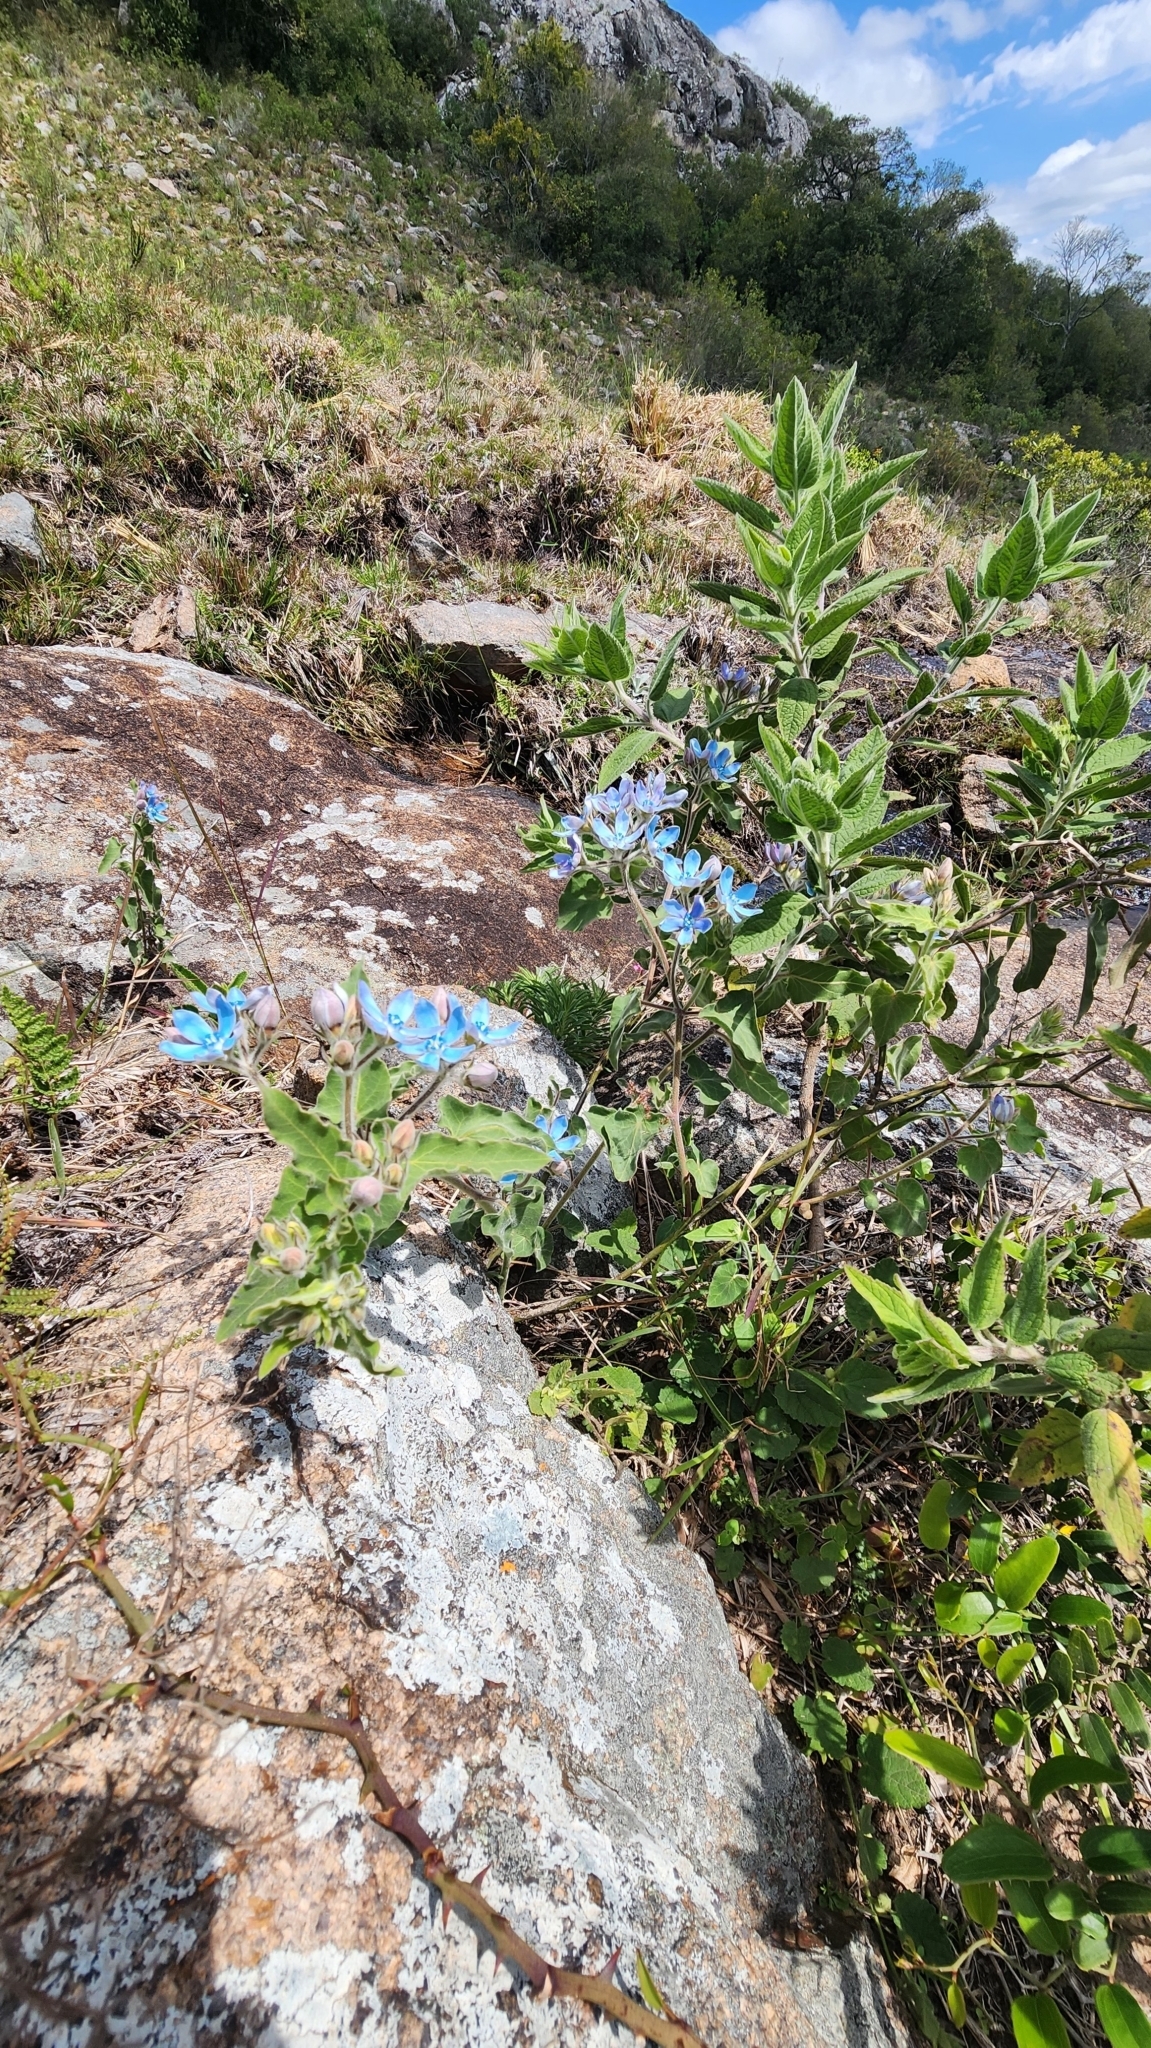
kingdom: Plantae
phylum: Tracheophyta
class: Magnoliopsida
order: Gentianales
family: Apocynaceae
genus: Oxypetalum
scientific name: Oxypetalum coeruleum
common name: Southern star
